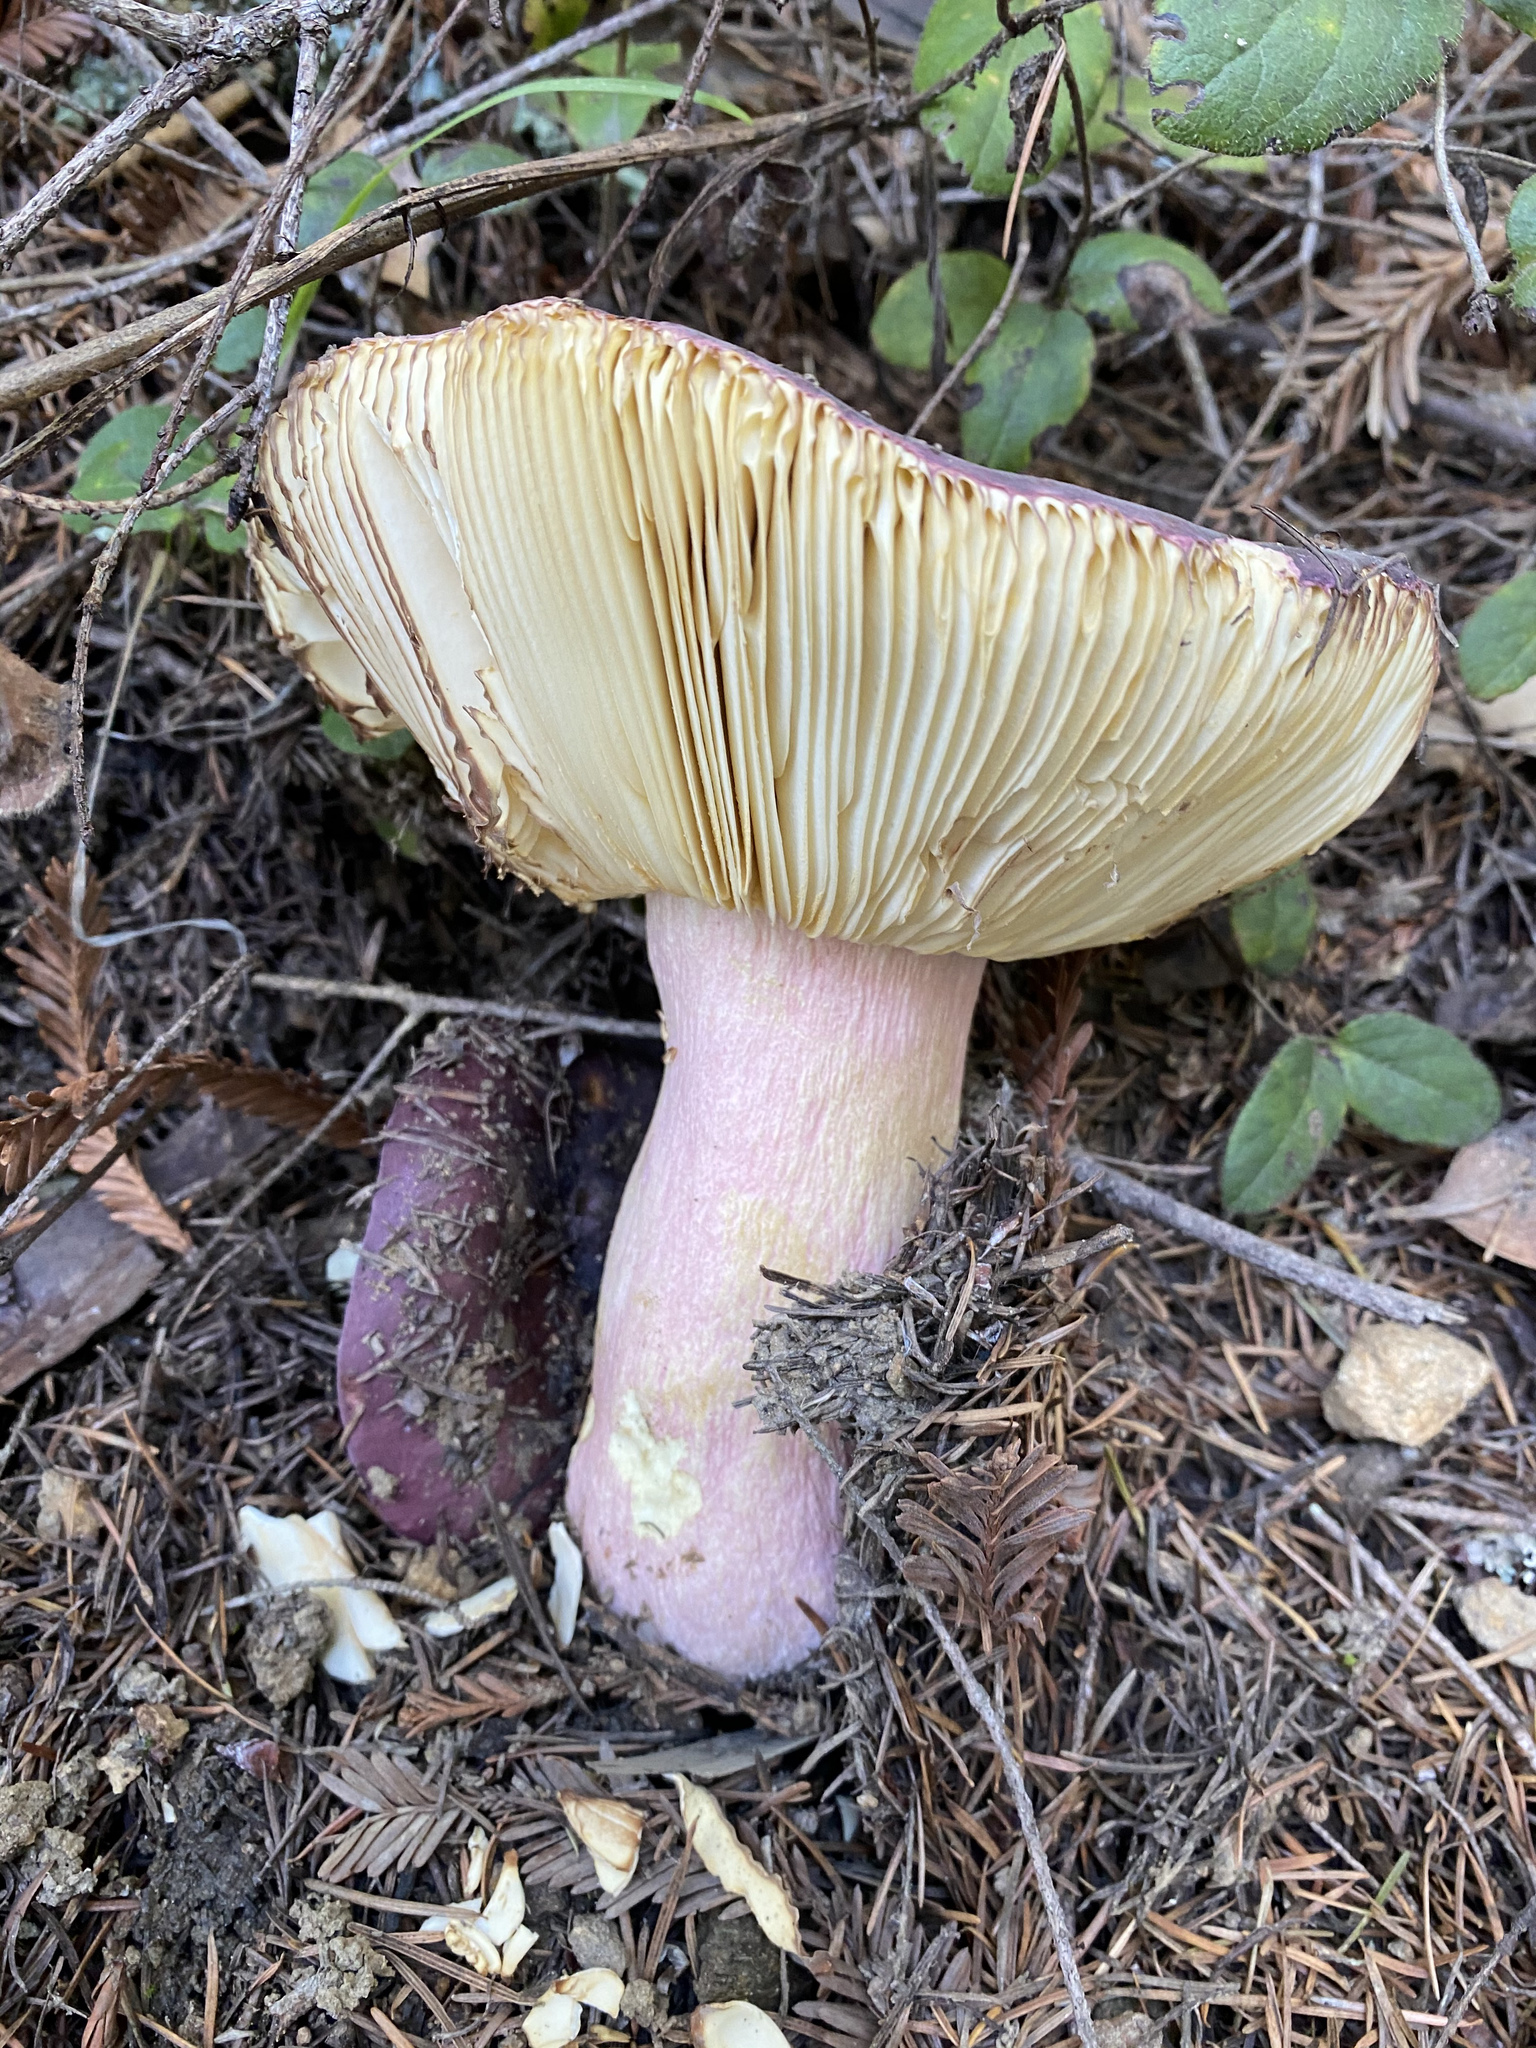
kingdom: Fungi
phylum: Basidiomycota
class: Agaricomycetes
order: Russulales
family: Russulaceae
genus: Russula
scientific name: Russula xerampelina
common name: Crab brittlegill
